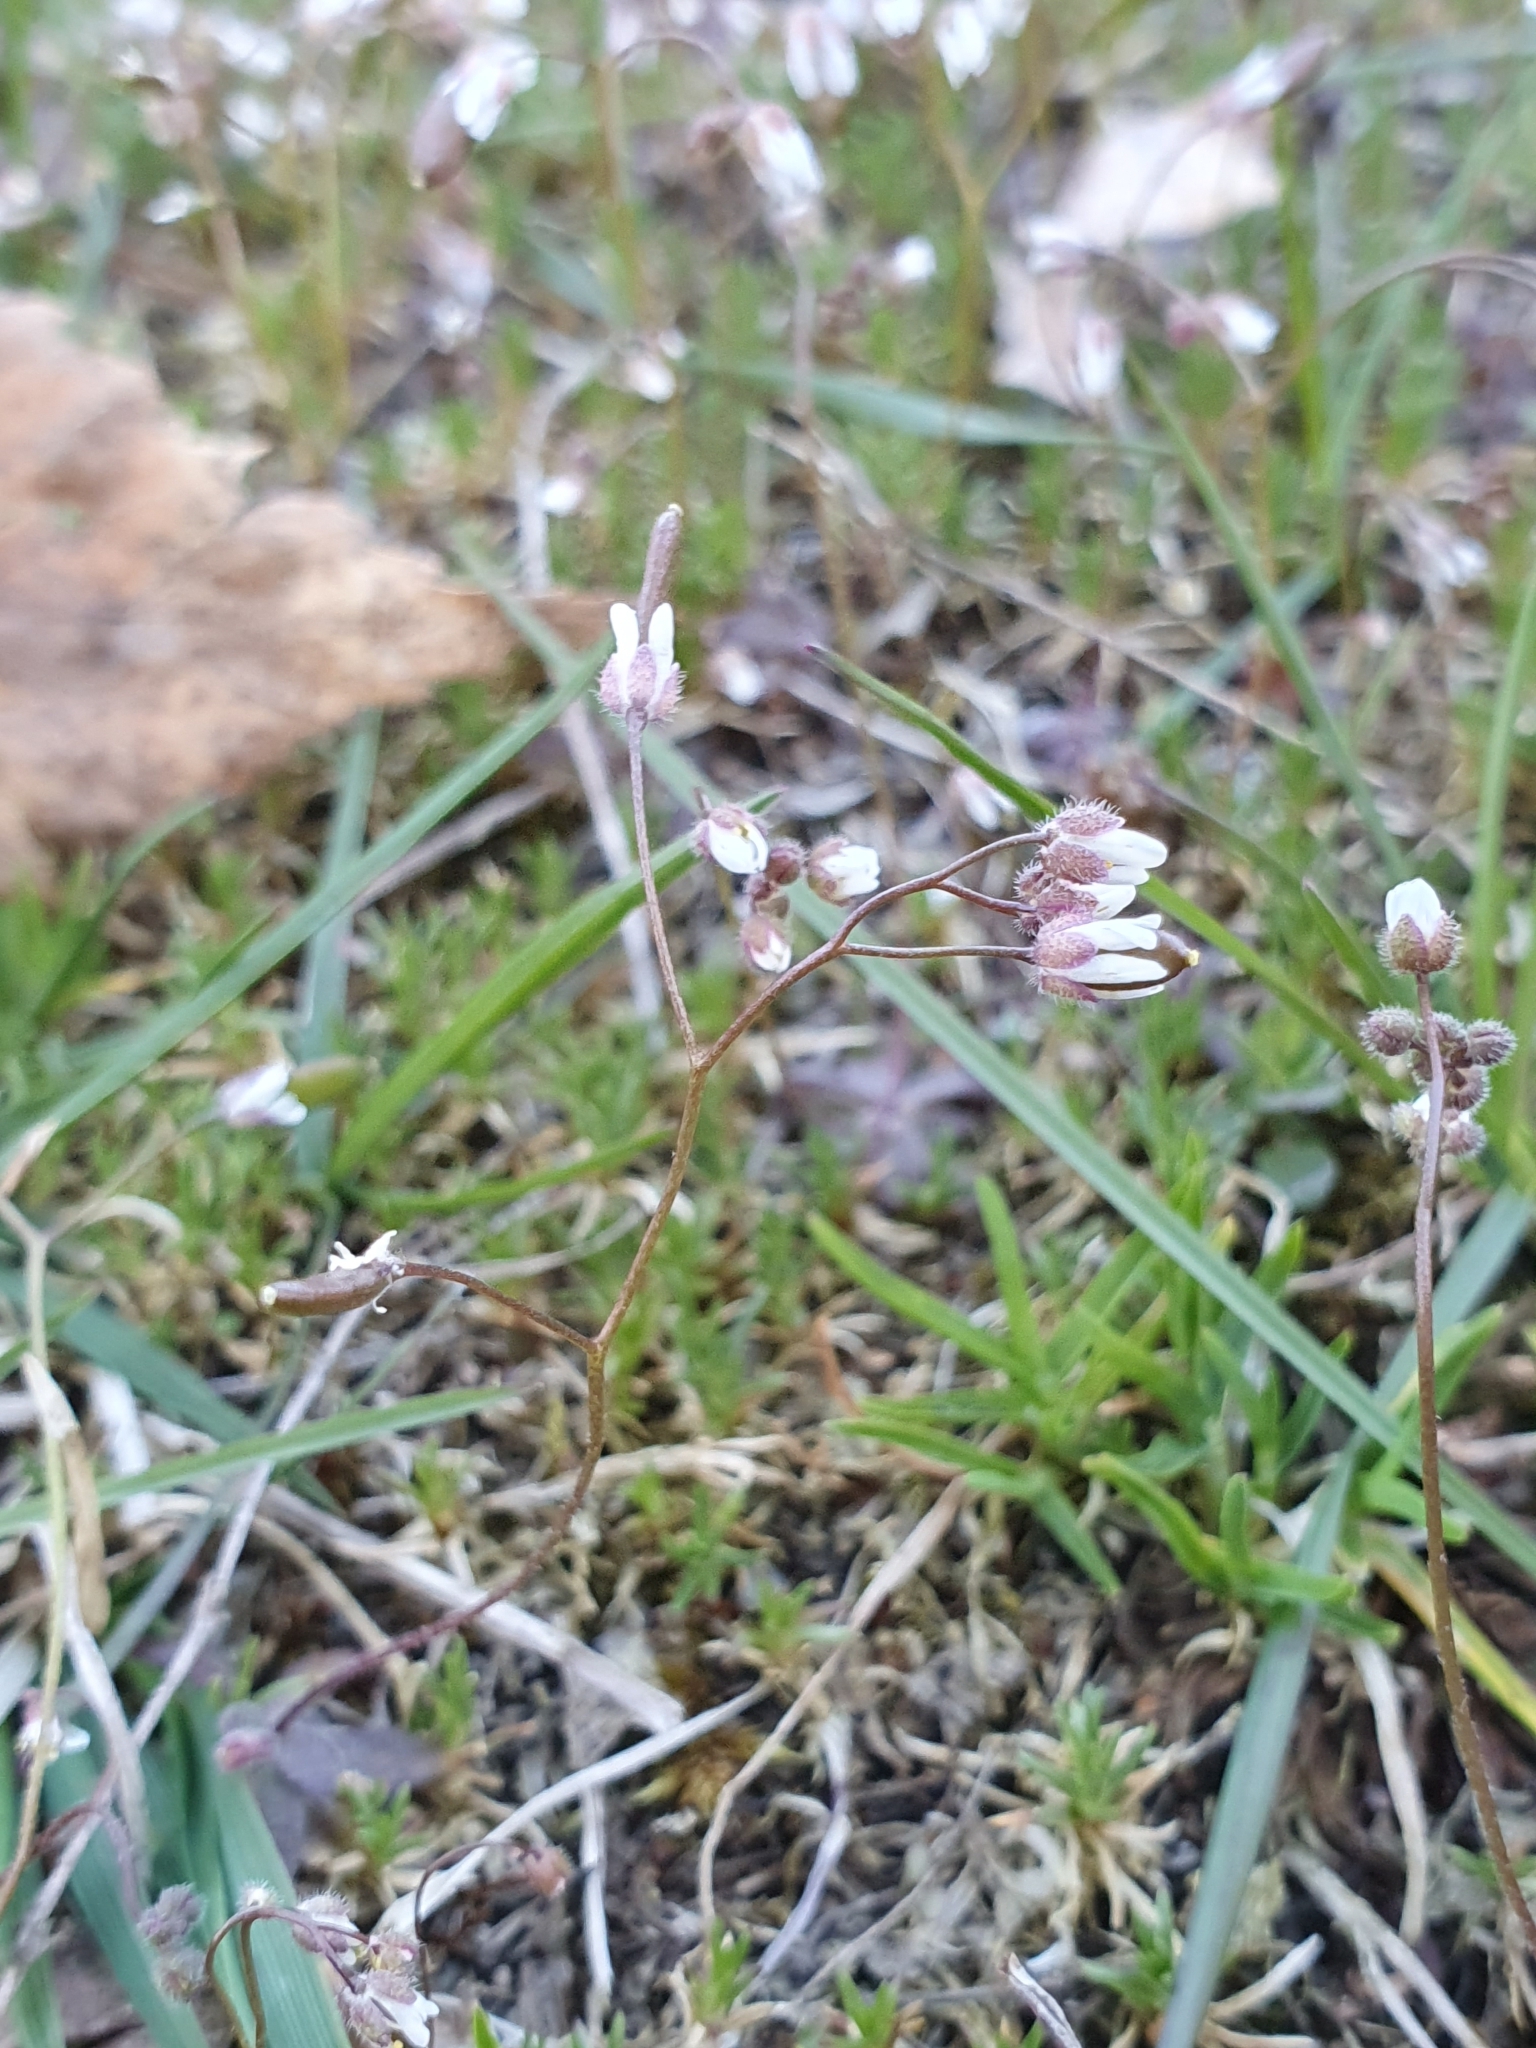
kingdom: Plantae
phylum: Tracheophyta
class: Magnoliopsida
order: Brassicales
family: Brassicaceae
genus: Draba
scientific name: Draba verna
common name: Spring draba
